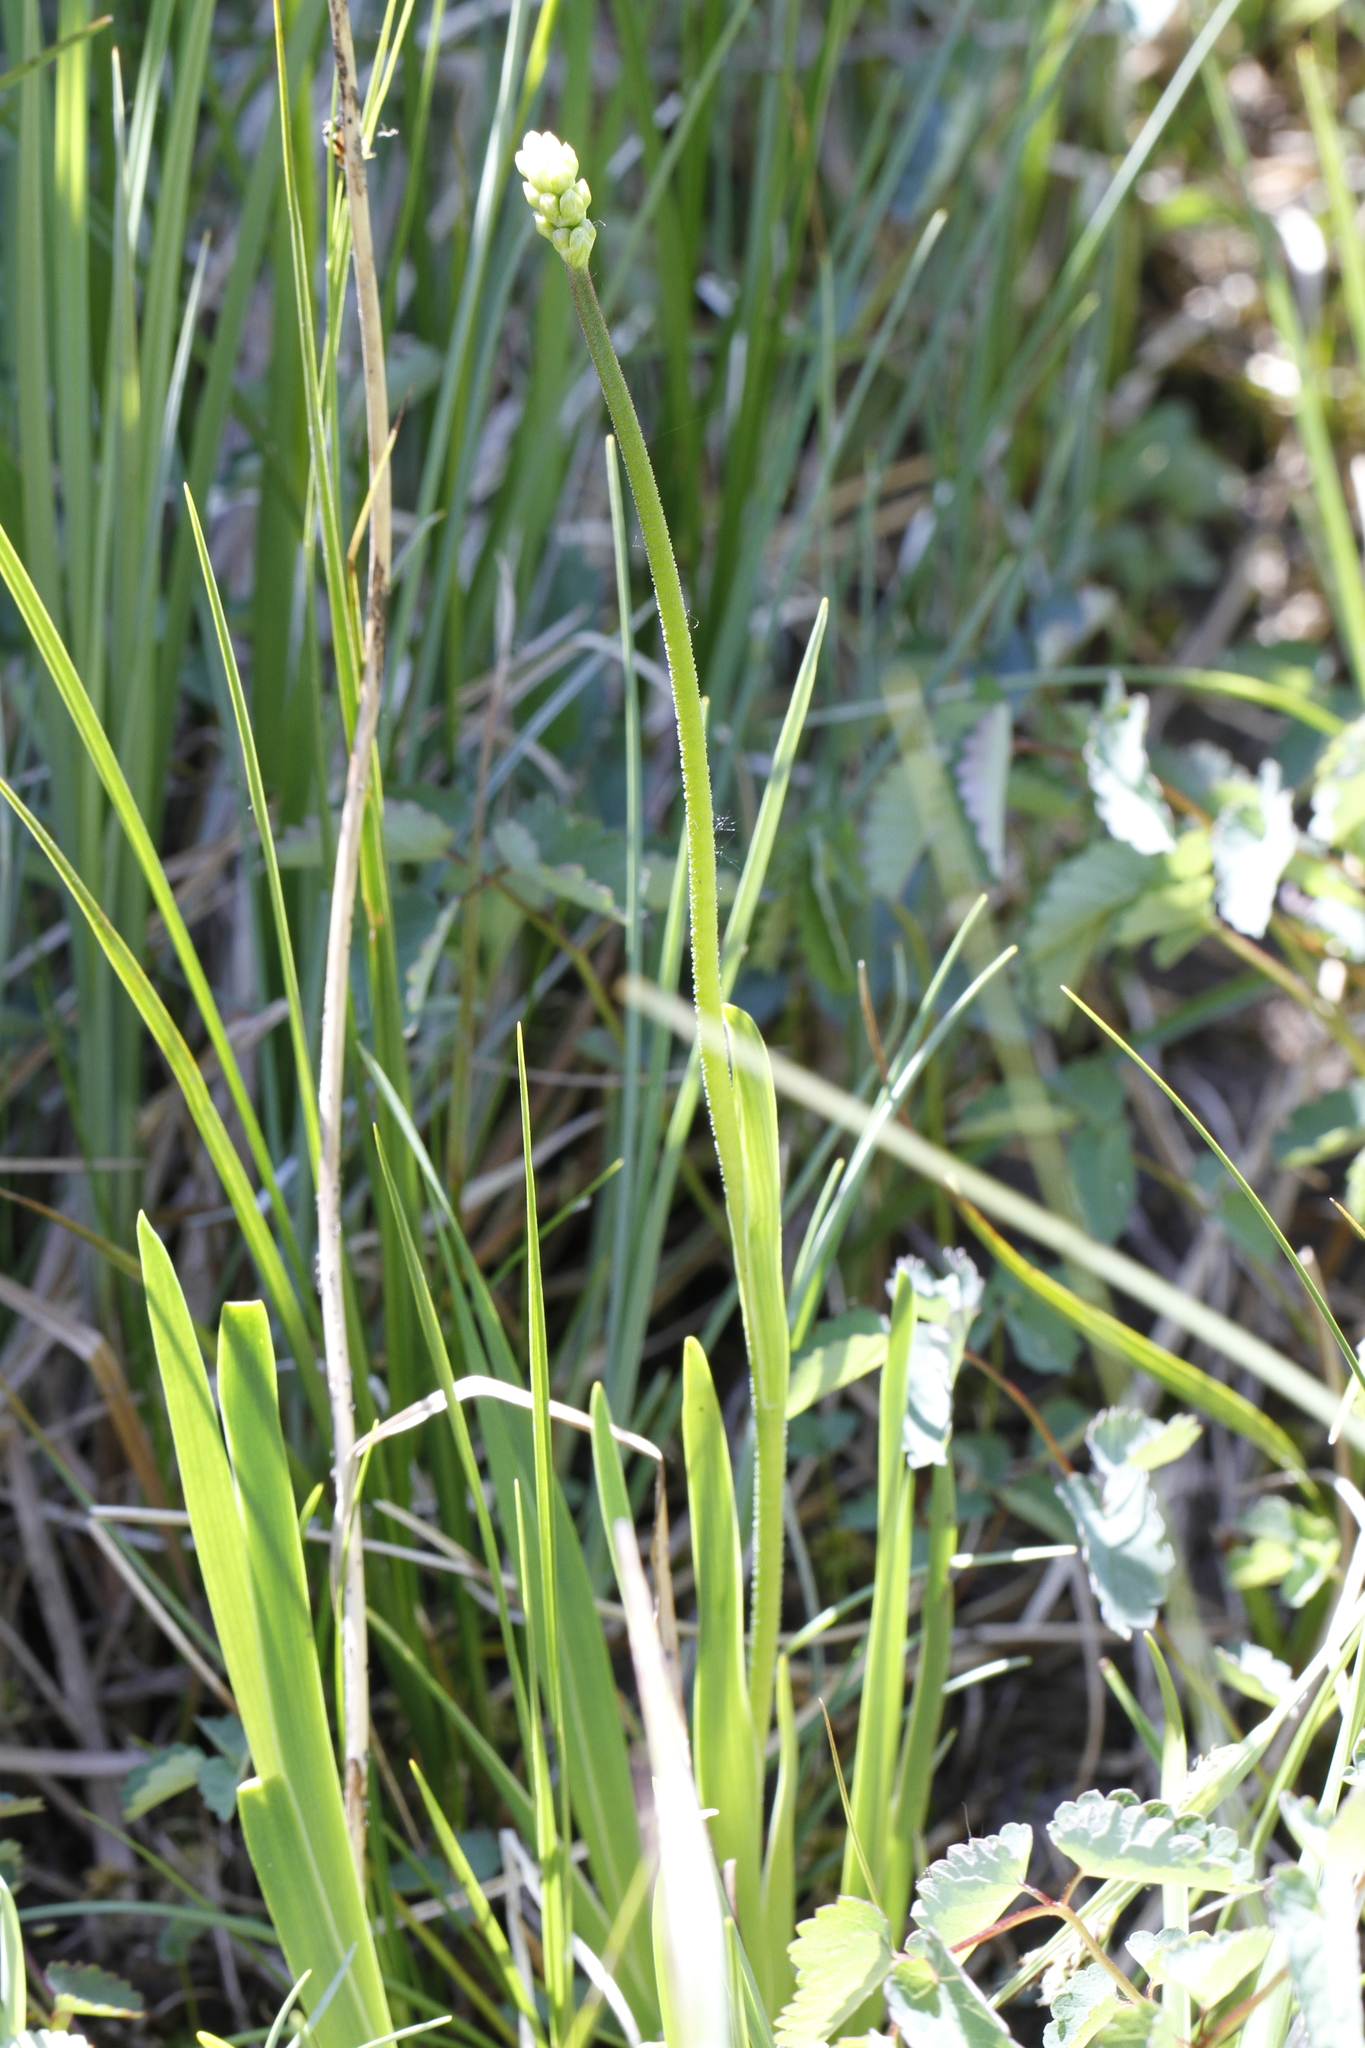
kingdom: Plantae
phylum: Tracheophyta
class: Liliopsida
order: Alismatales
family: Tofieldiaceae
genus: Triantha
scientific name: Triantha glutinosa
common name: Glutinous tofieldia
